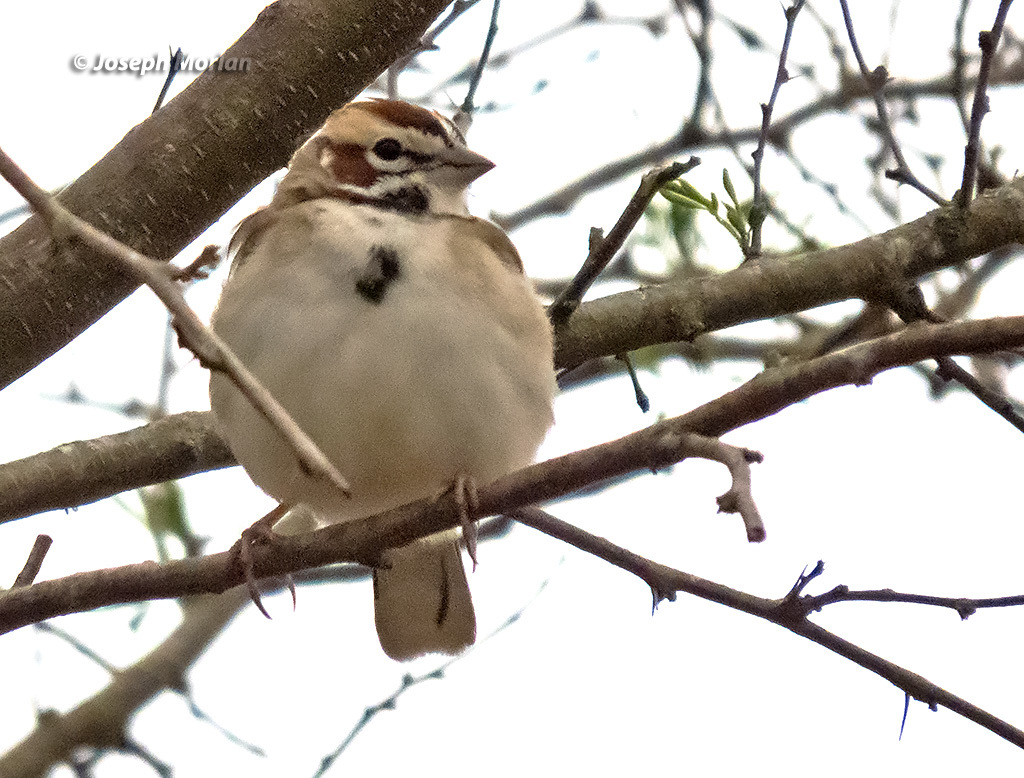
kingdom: Animalia
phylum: Chordata
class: Aves
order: Passeriformes
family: Passerellidae
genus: Chondestes
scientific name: Chondestes grammacus
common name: Lark sparrow
